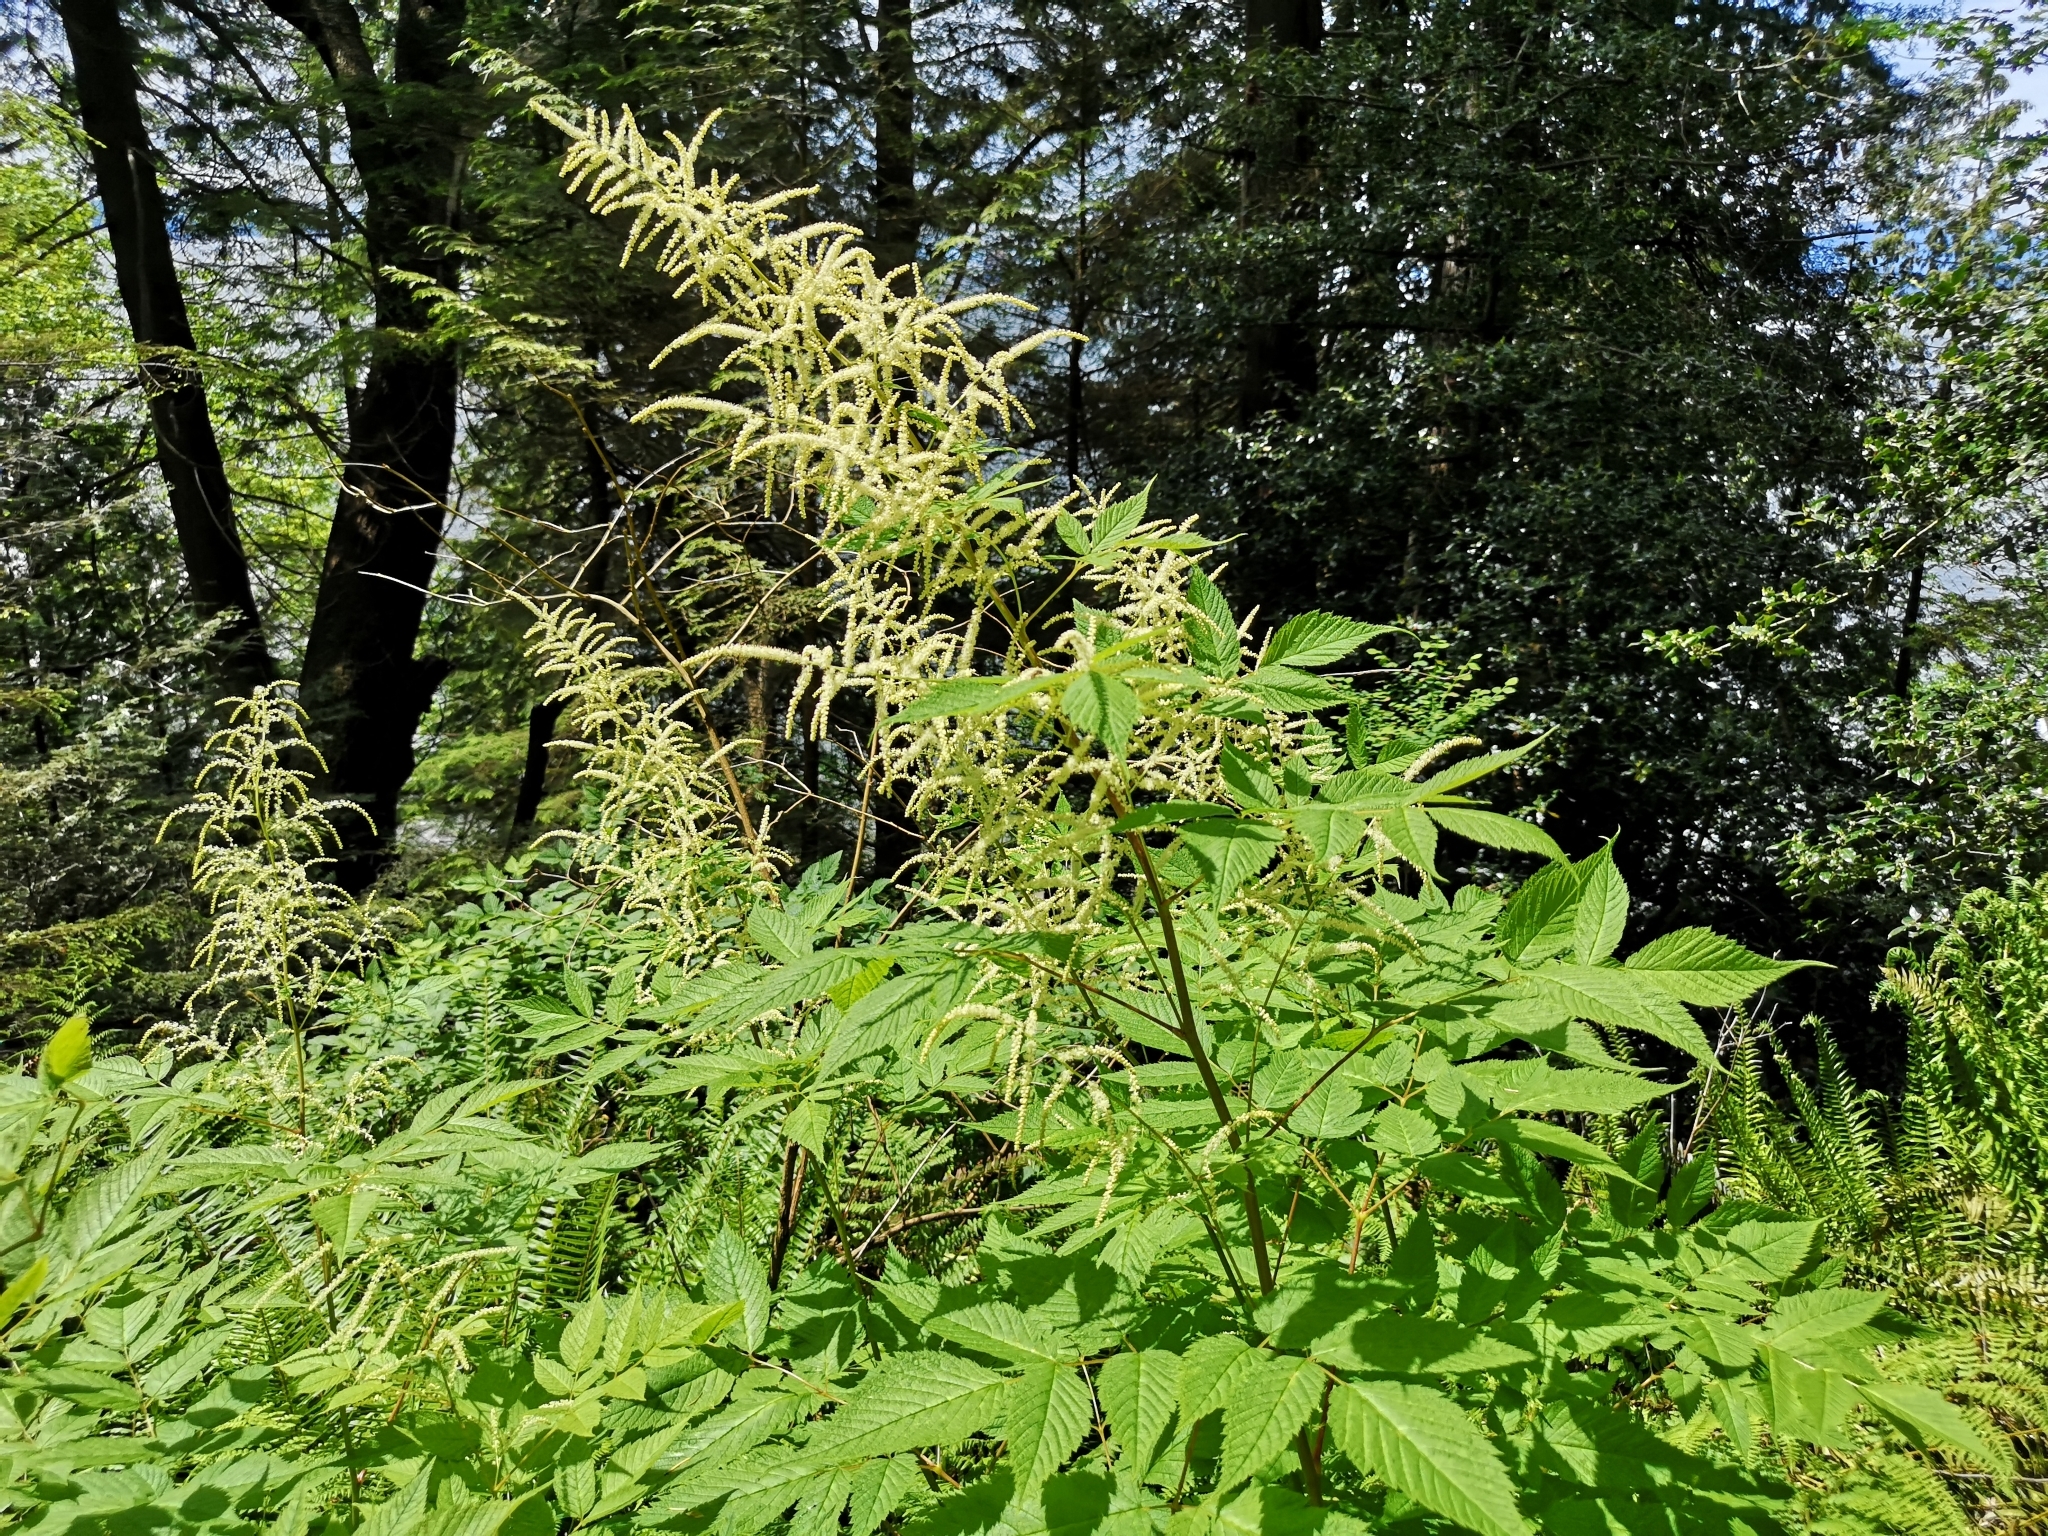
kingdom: Plantae
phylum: Tracheophyta
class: Magnoliopsida
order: Rosales
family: Rosaceae
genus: Aruncus
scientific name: Aruncus dioicus
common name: Buck's-beard
